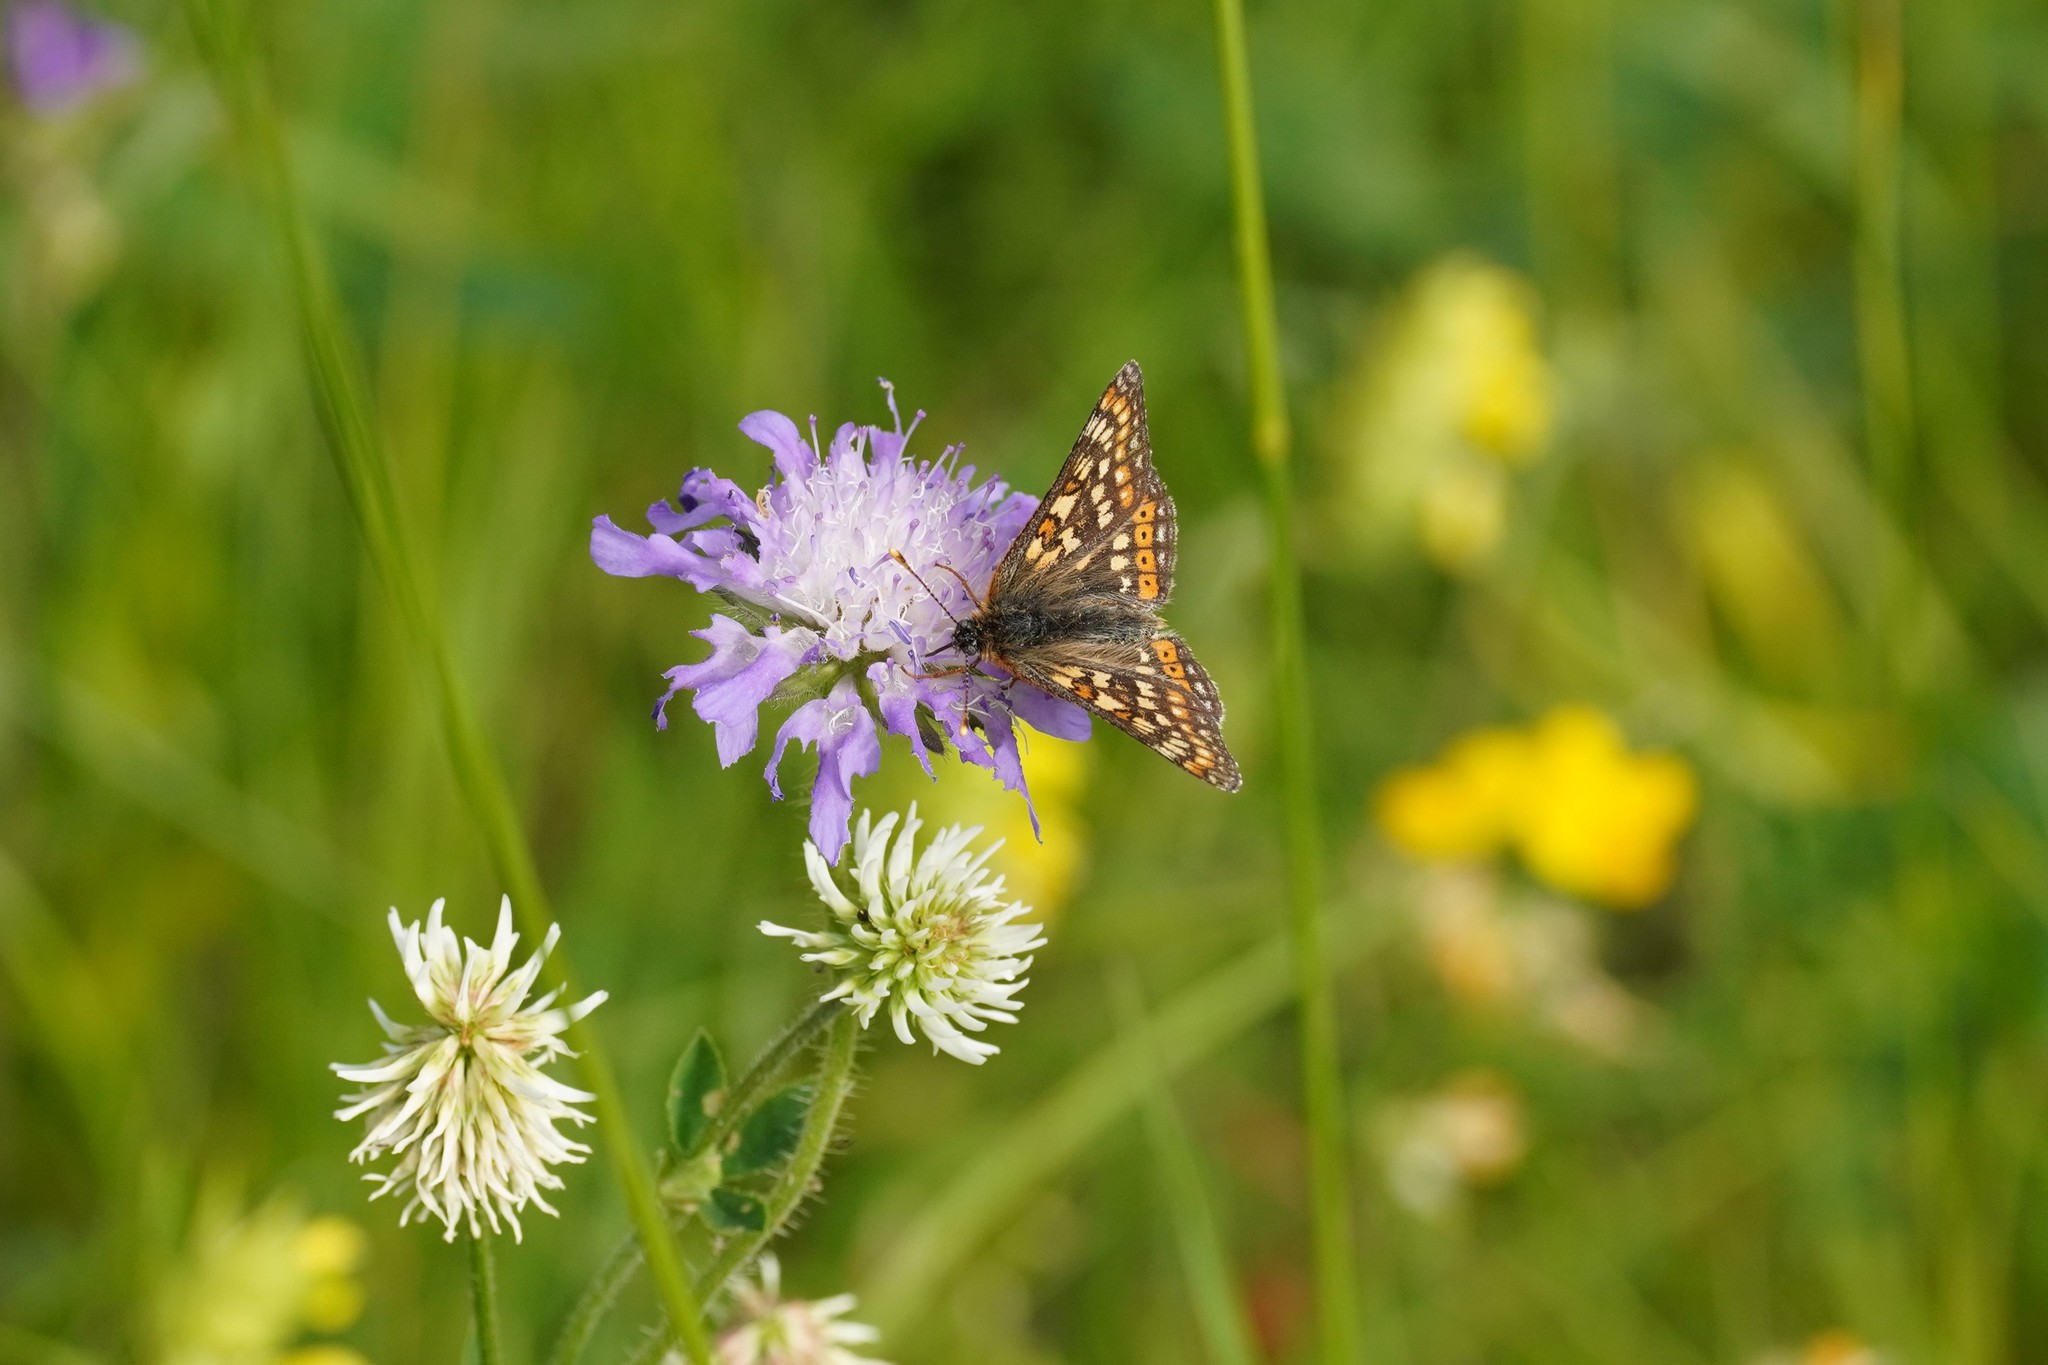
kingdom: Animalia
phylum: Arthropoda
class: Insecta
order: Lepidoptera
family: Nymphalidae
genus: Euphydryas
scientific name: Euphydryas aurinia
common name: Marsh fritillary
